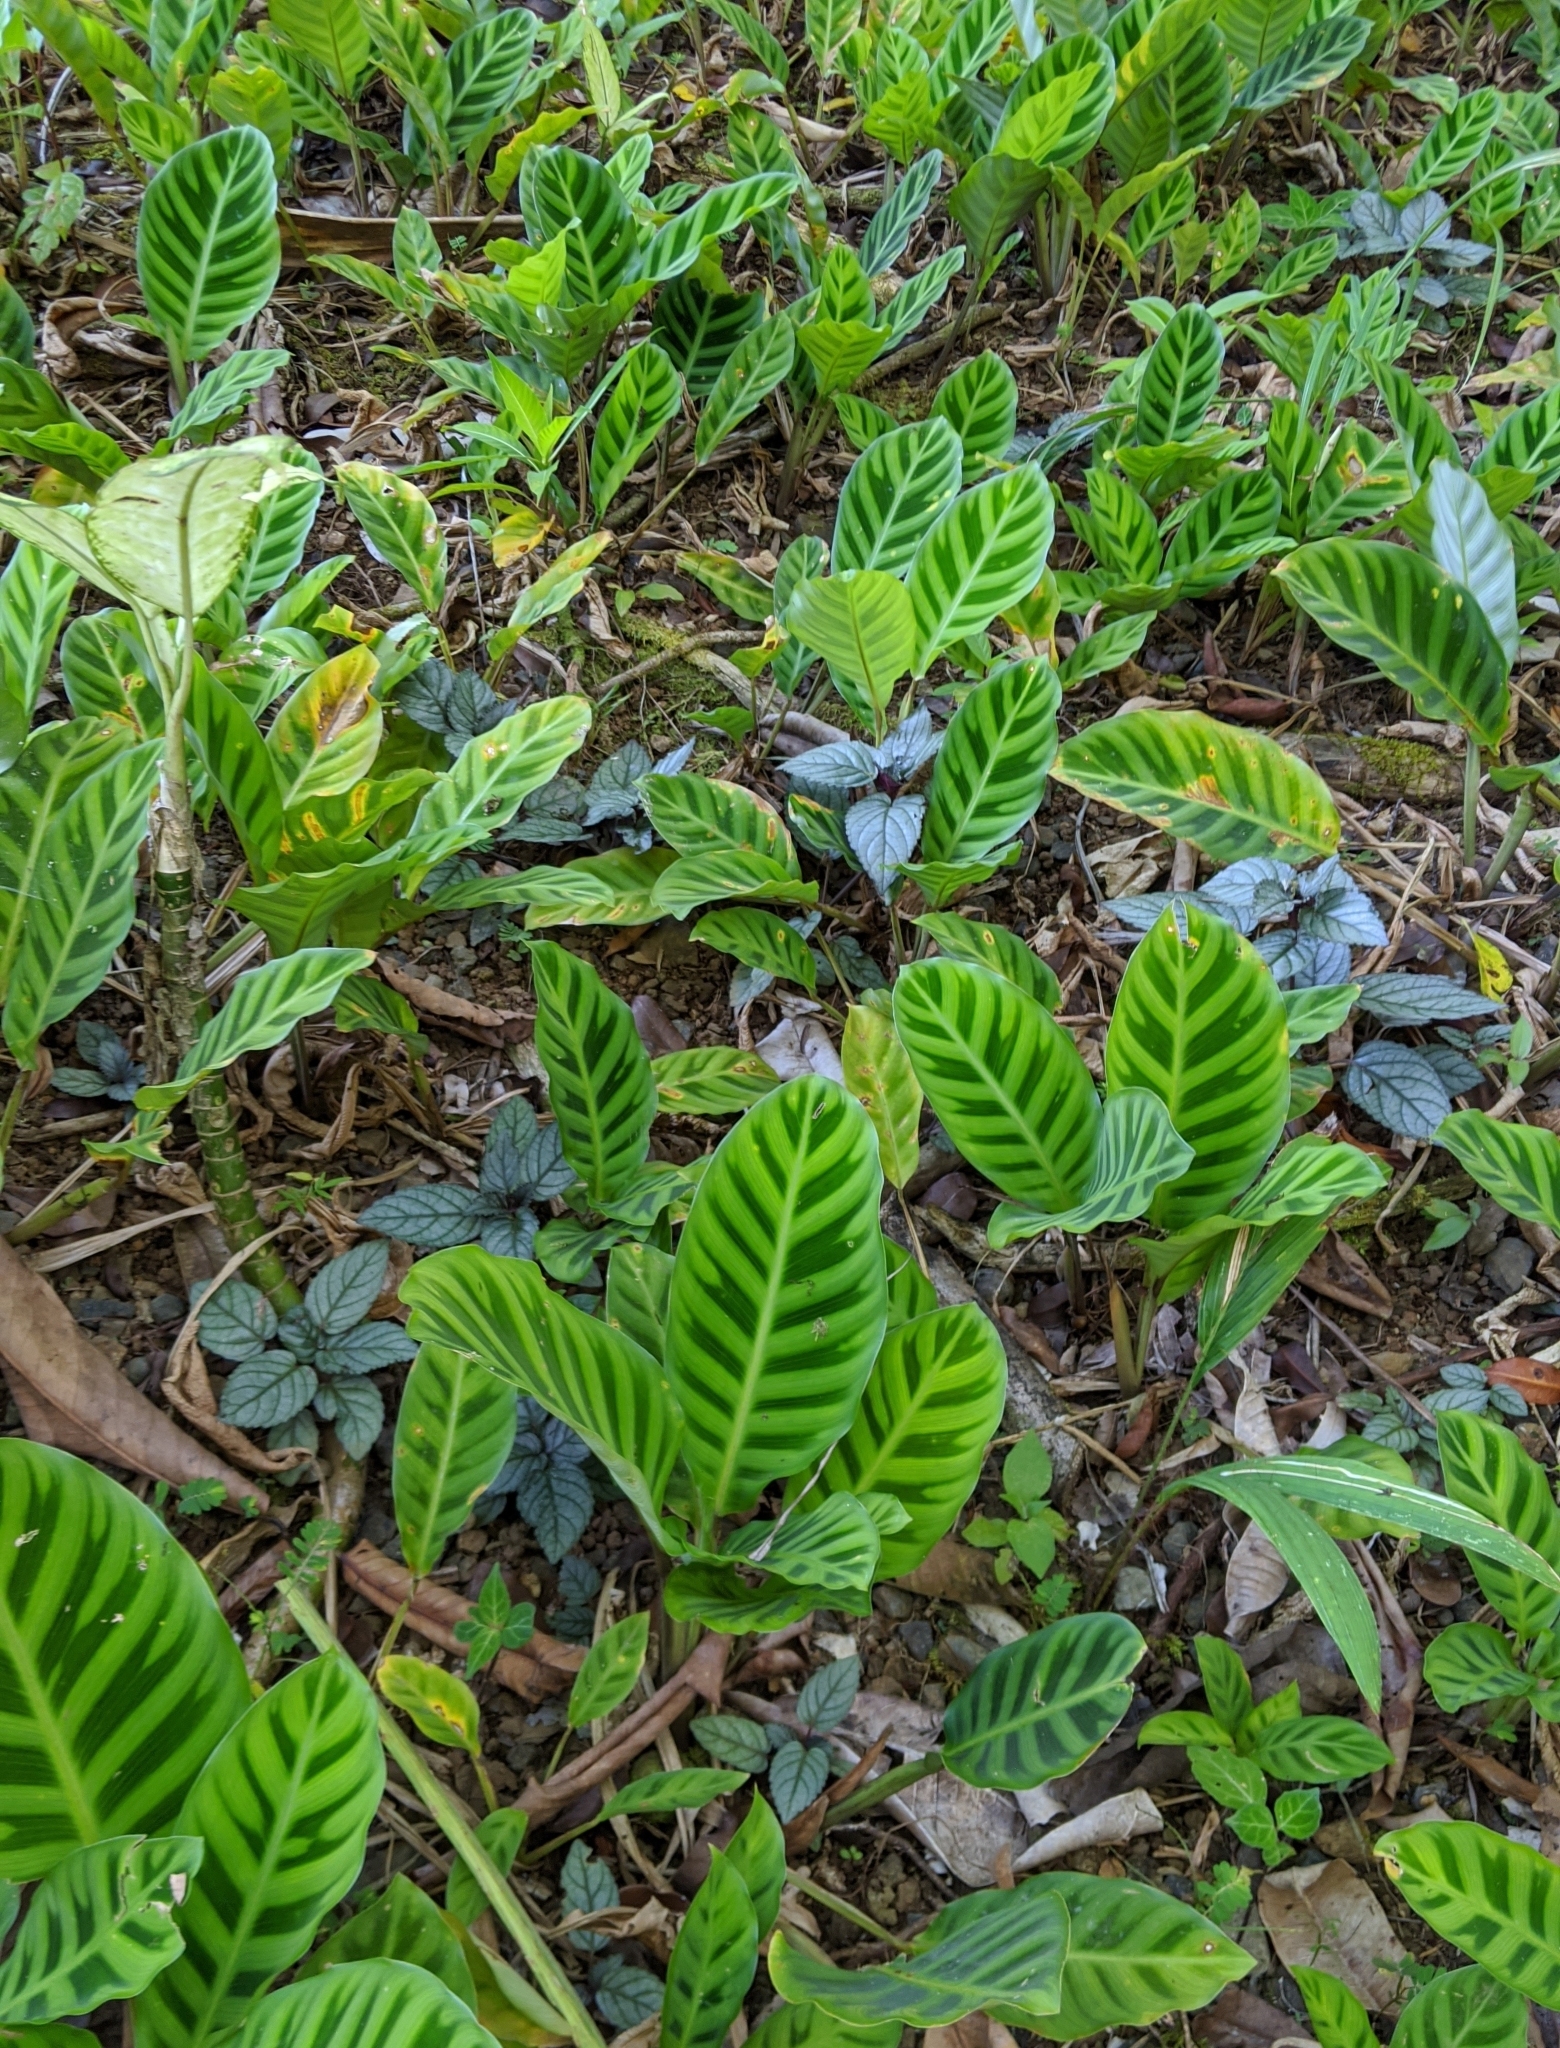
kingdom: Plantae
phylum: Tracheophyta
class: Liliopsida
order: Zingiberales
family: Marantaceae
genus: Goeppertia
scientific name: Goeppertia zebrina
